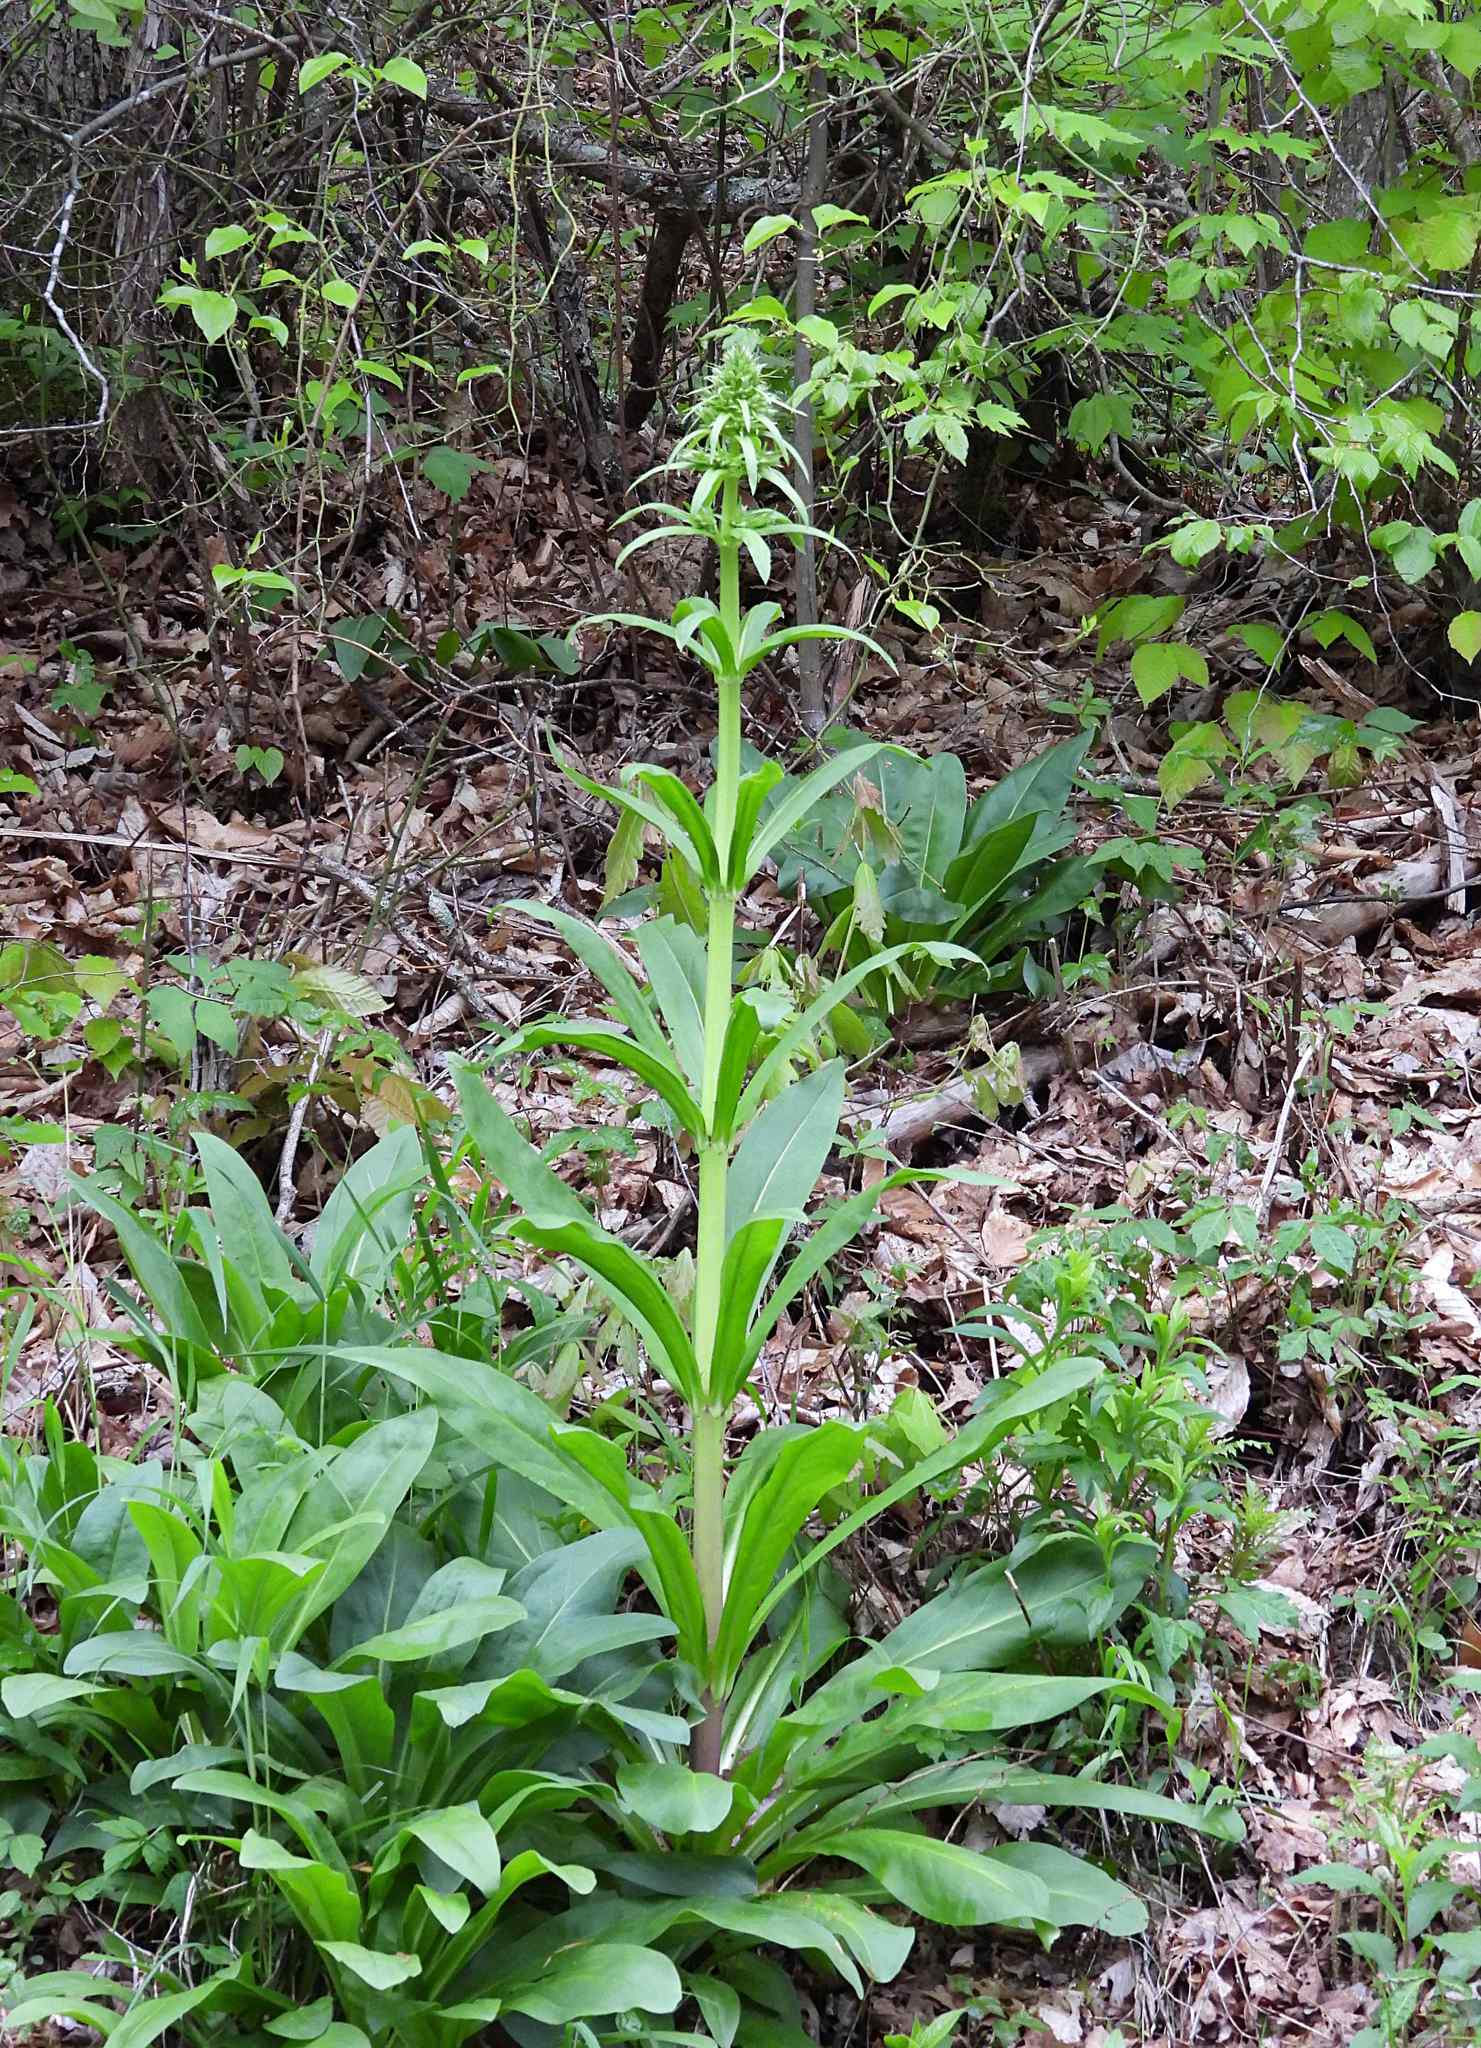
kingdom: Plantae
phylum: Tracheophyta
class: Magnoliopsida
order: Gentianales
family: Gentianaceae
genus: Frasera
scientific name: Frasera caroliniensis
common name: American columbo
